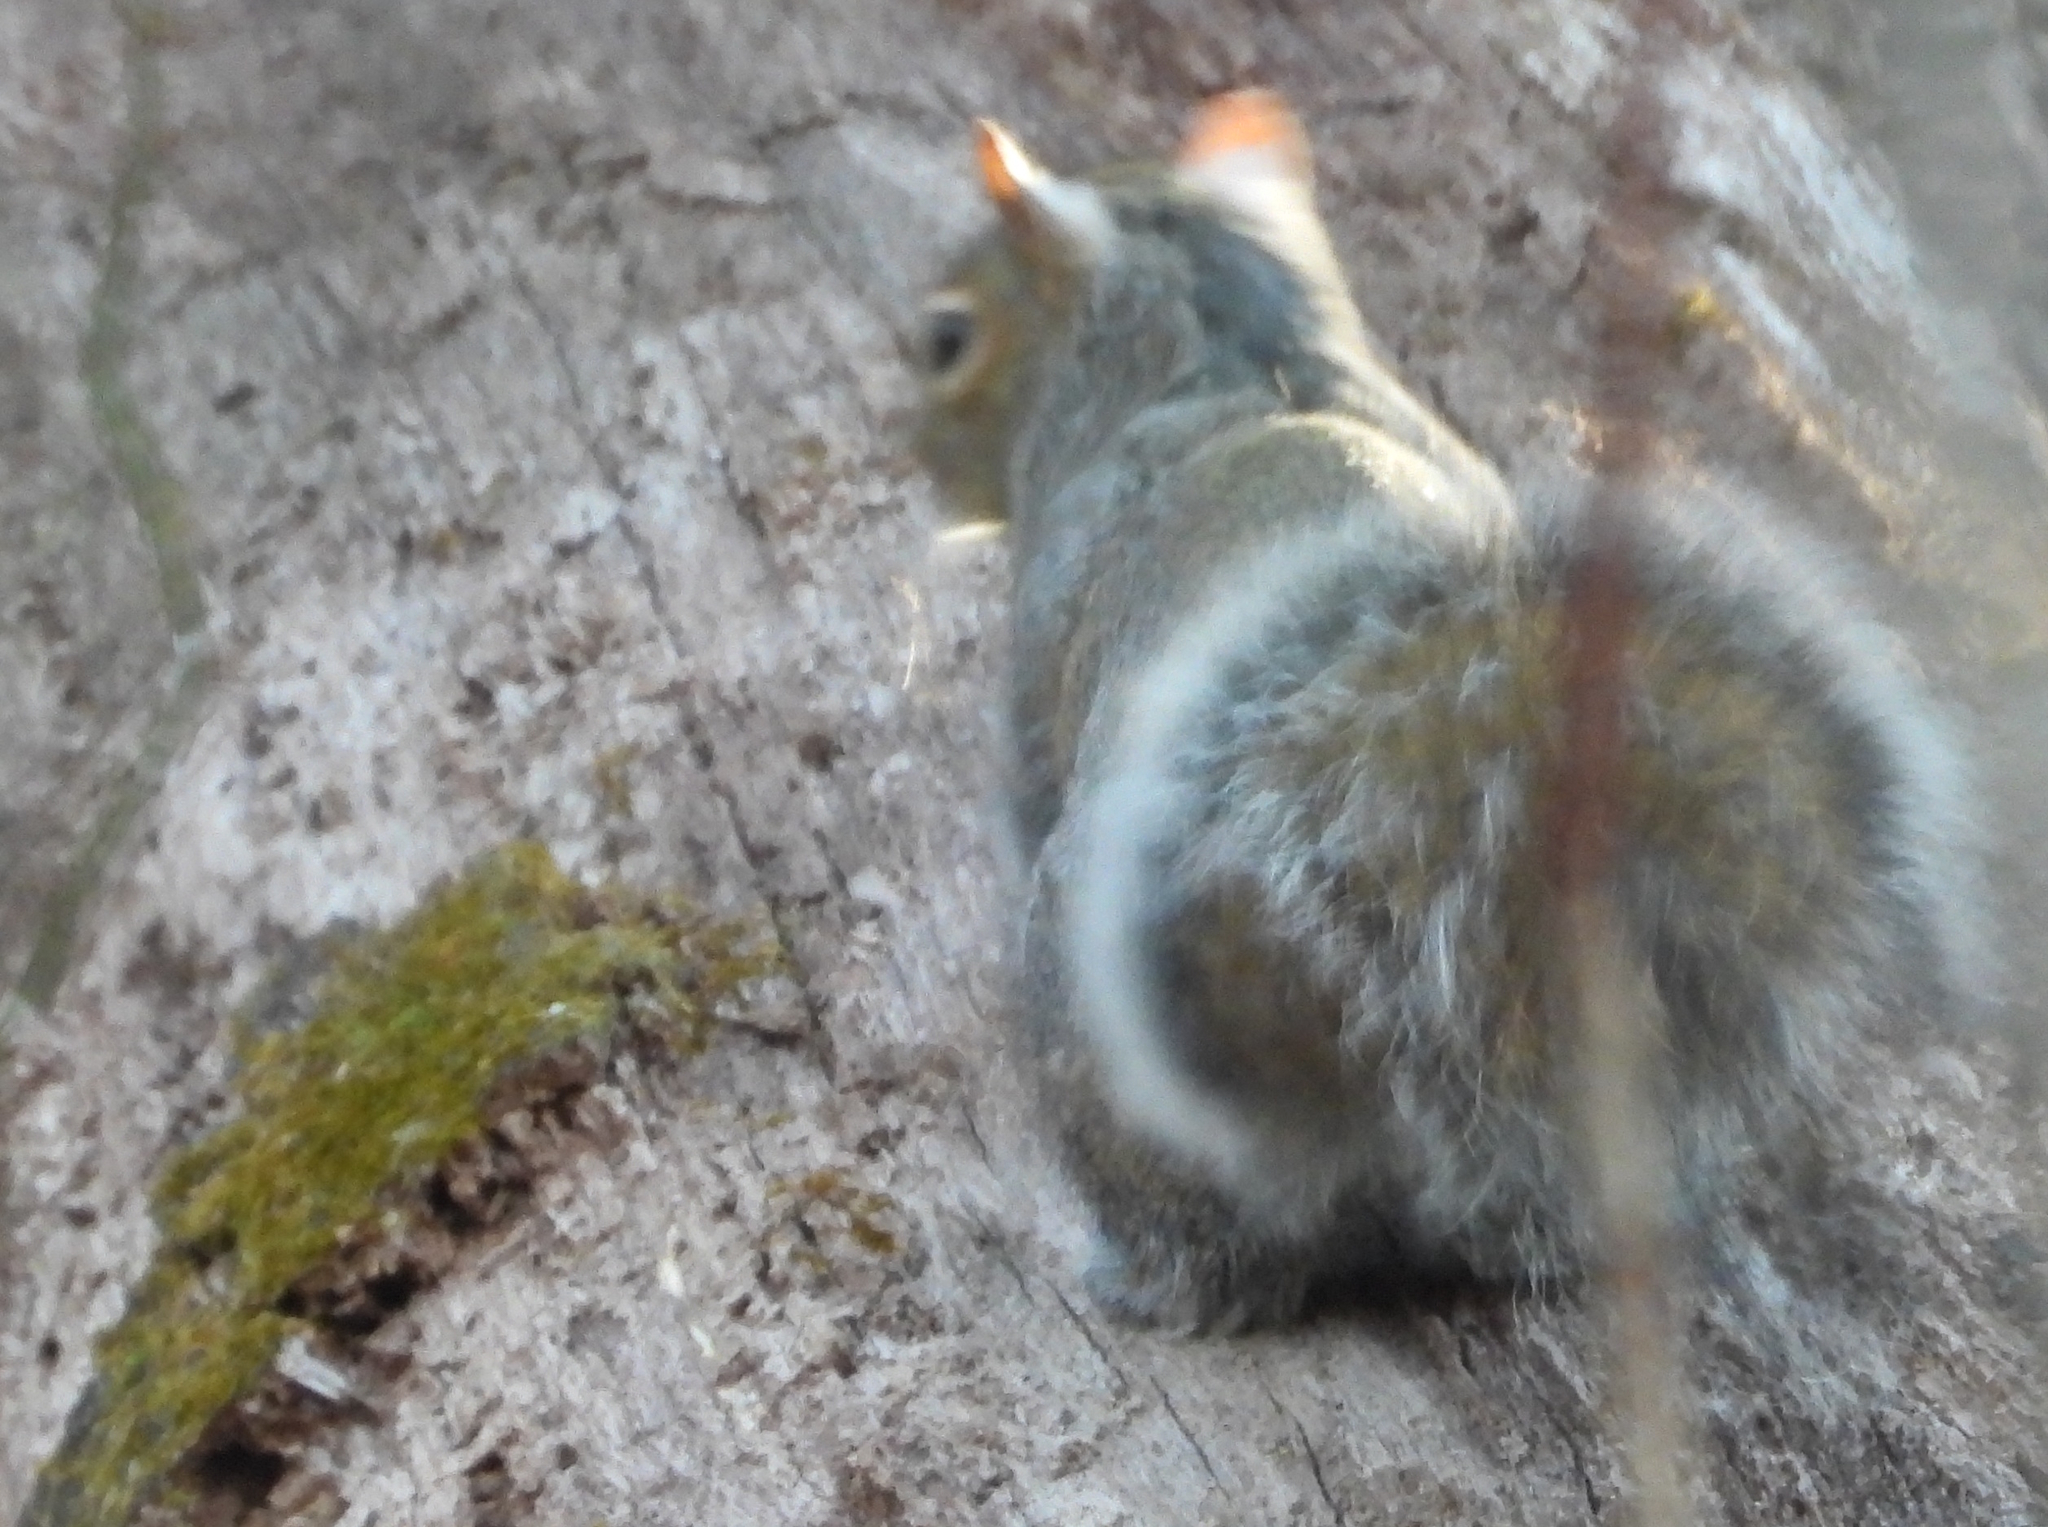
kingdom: Animalia
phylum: Chordata
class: Mammalia
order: Rodentia
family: Sciuridae
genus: Sciurus
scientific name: Sciurus carolinensis
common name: Eastern gray squirrel
